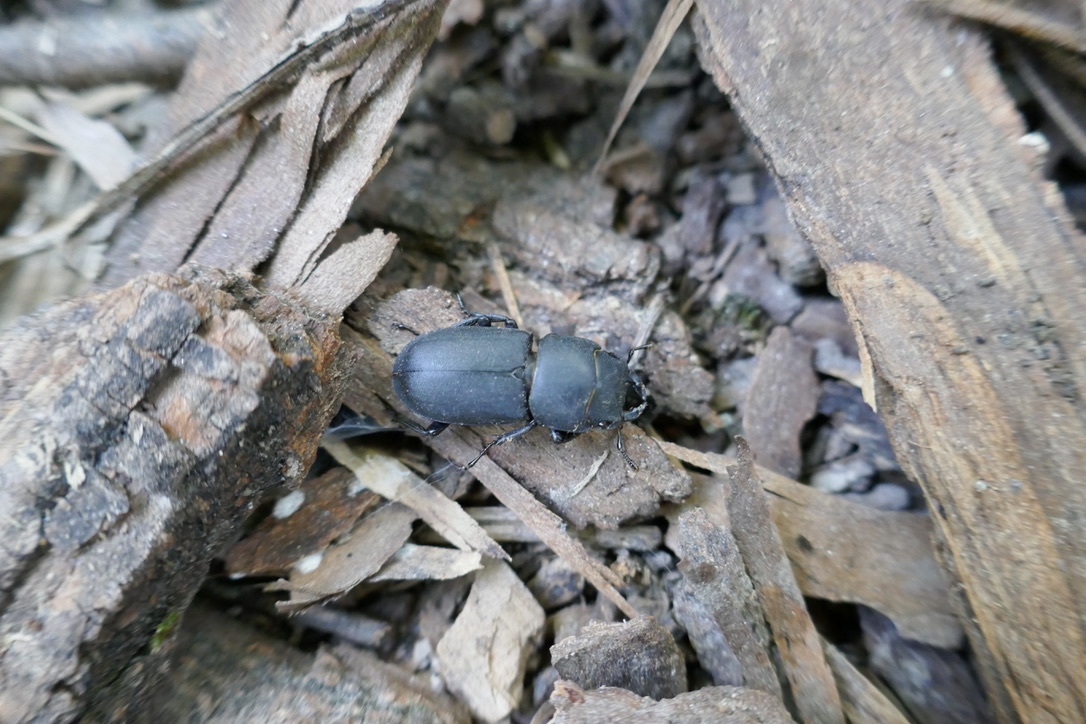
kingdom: Animalia
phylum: Arthropoda
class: Insecta
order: Coleoptera
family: Lucanidae
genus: Dorcus
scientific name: Dorcus parallelipipedus
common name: Lesser stag beetle
